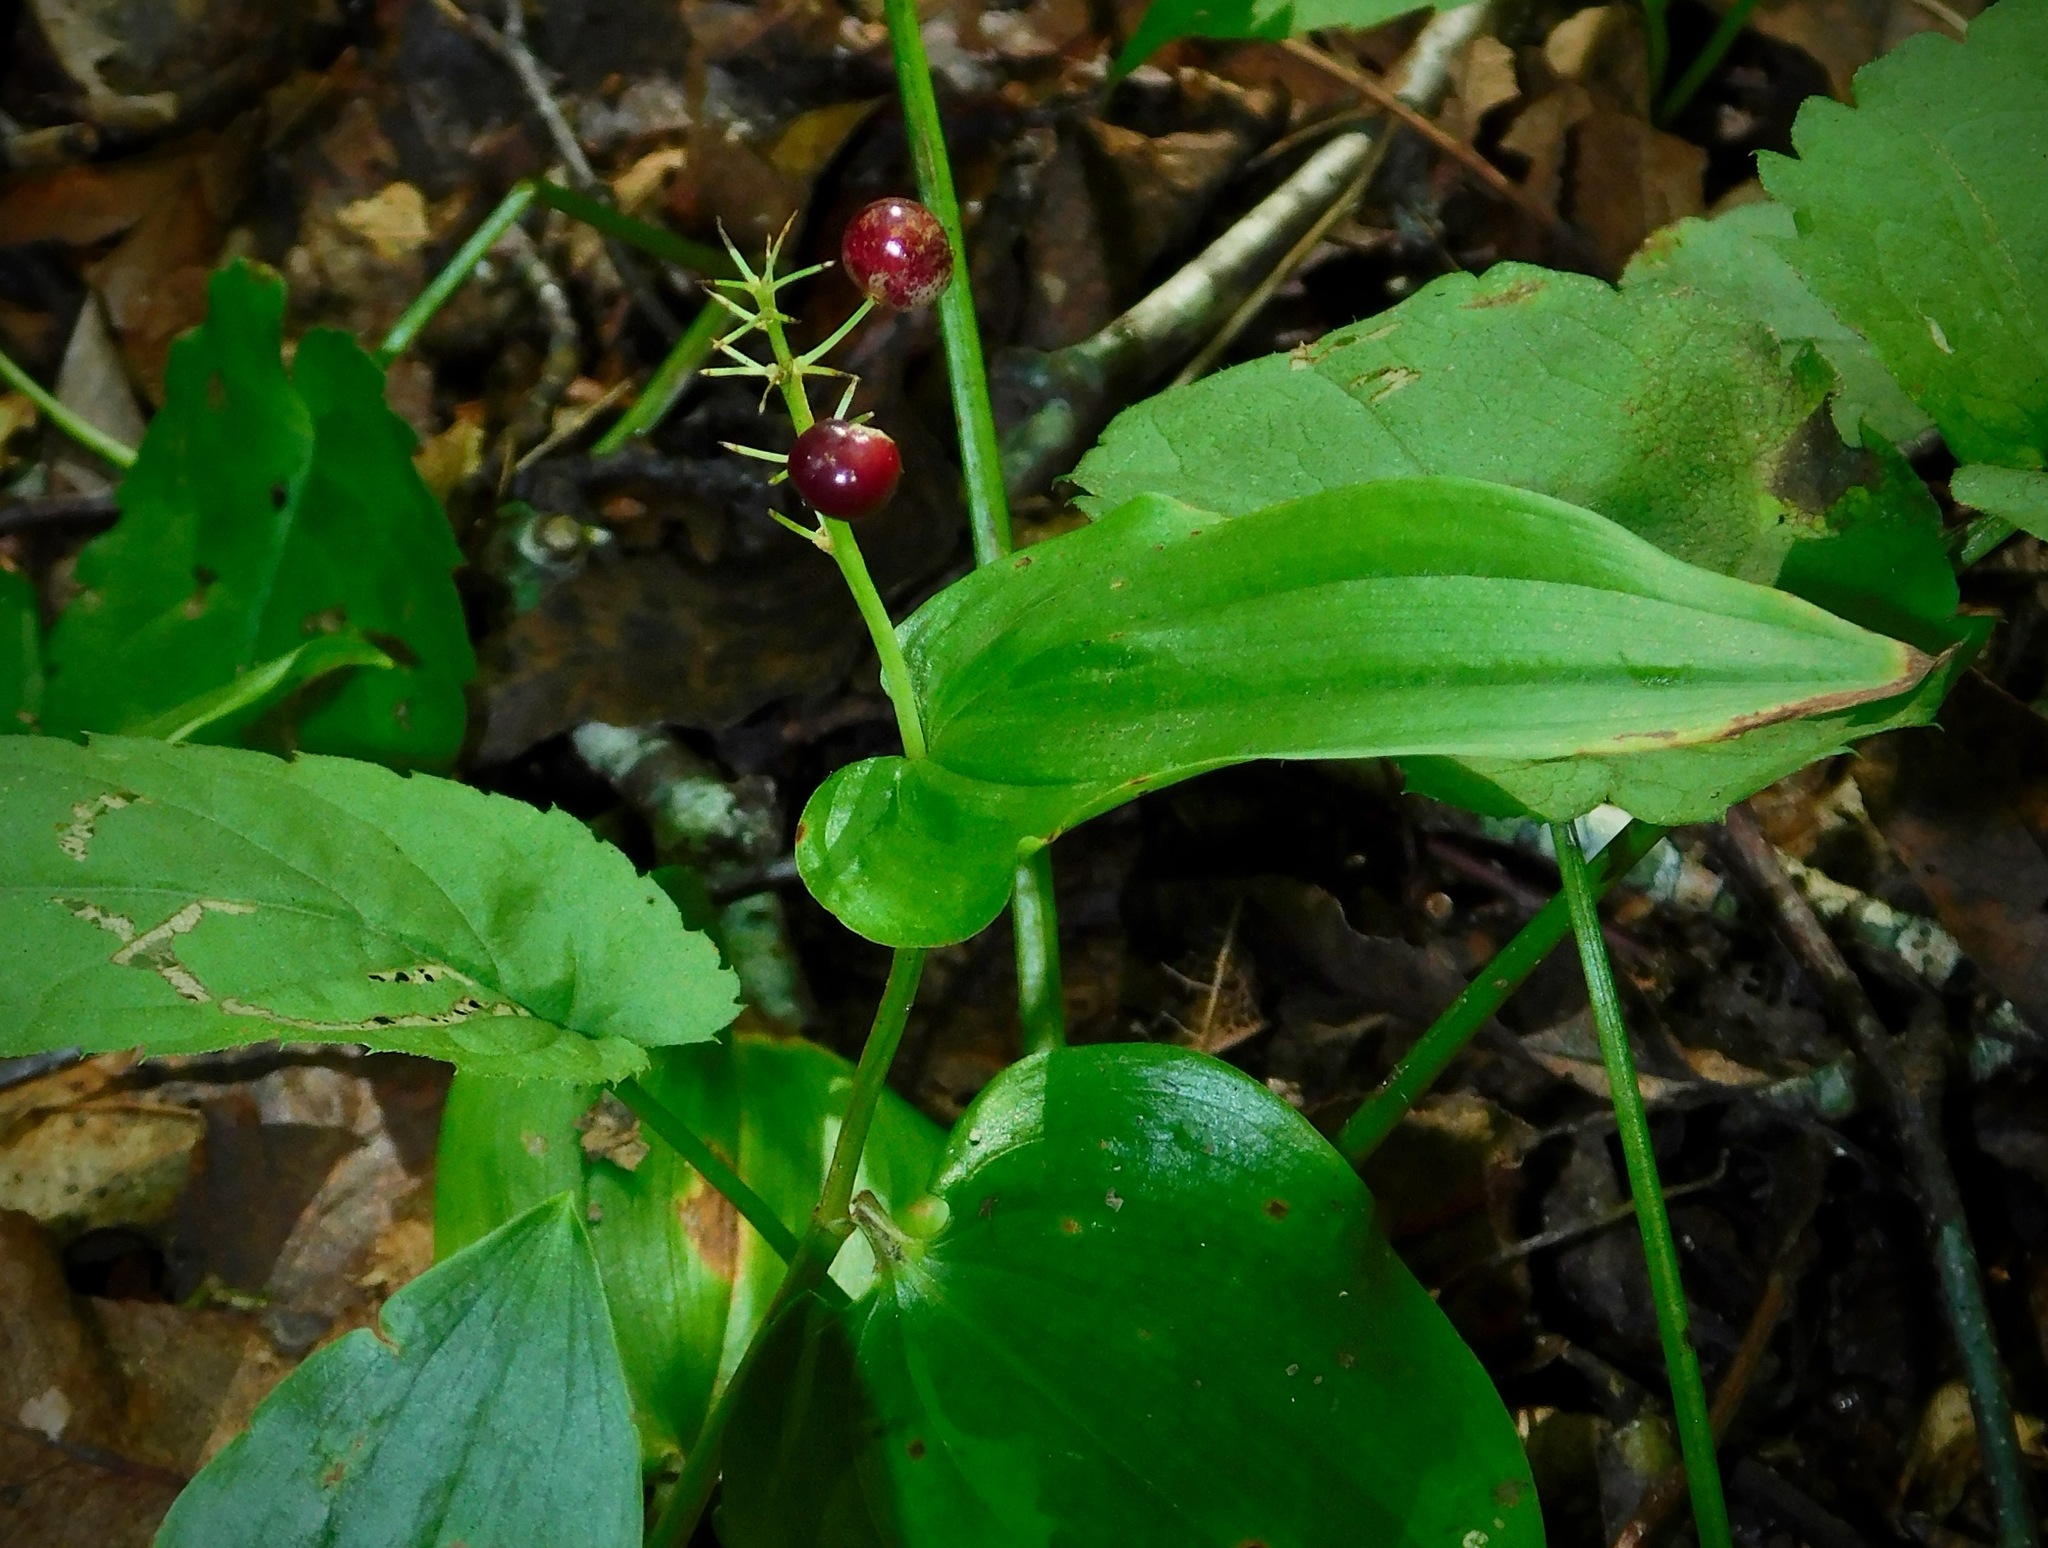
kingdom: Plantae
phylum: Tracheophyta
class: Liliopsida
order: Asparagales
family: Asparagaceae
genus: Maianthemum
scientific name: Maianthemum canadense
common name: False lily-of-the-valley
